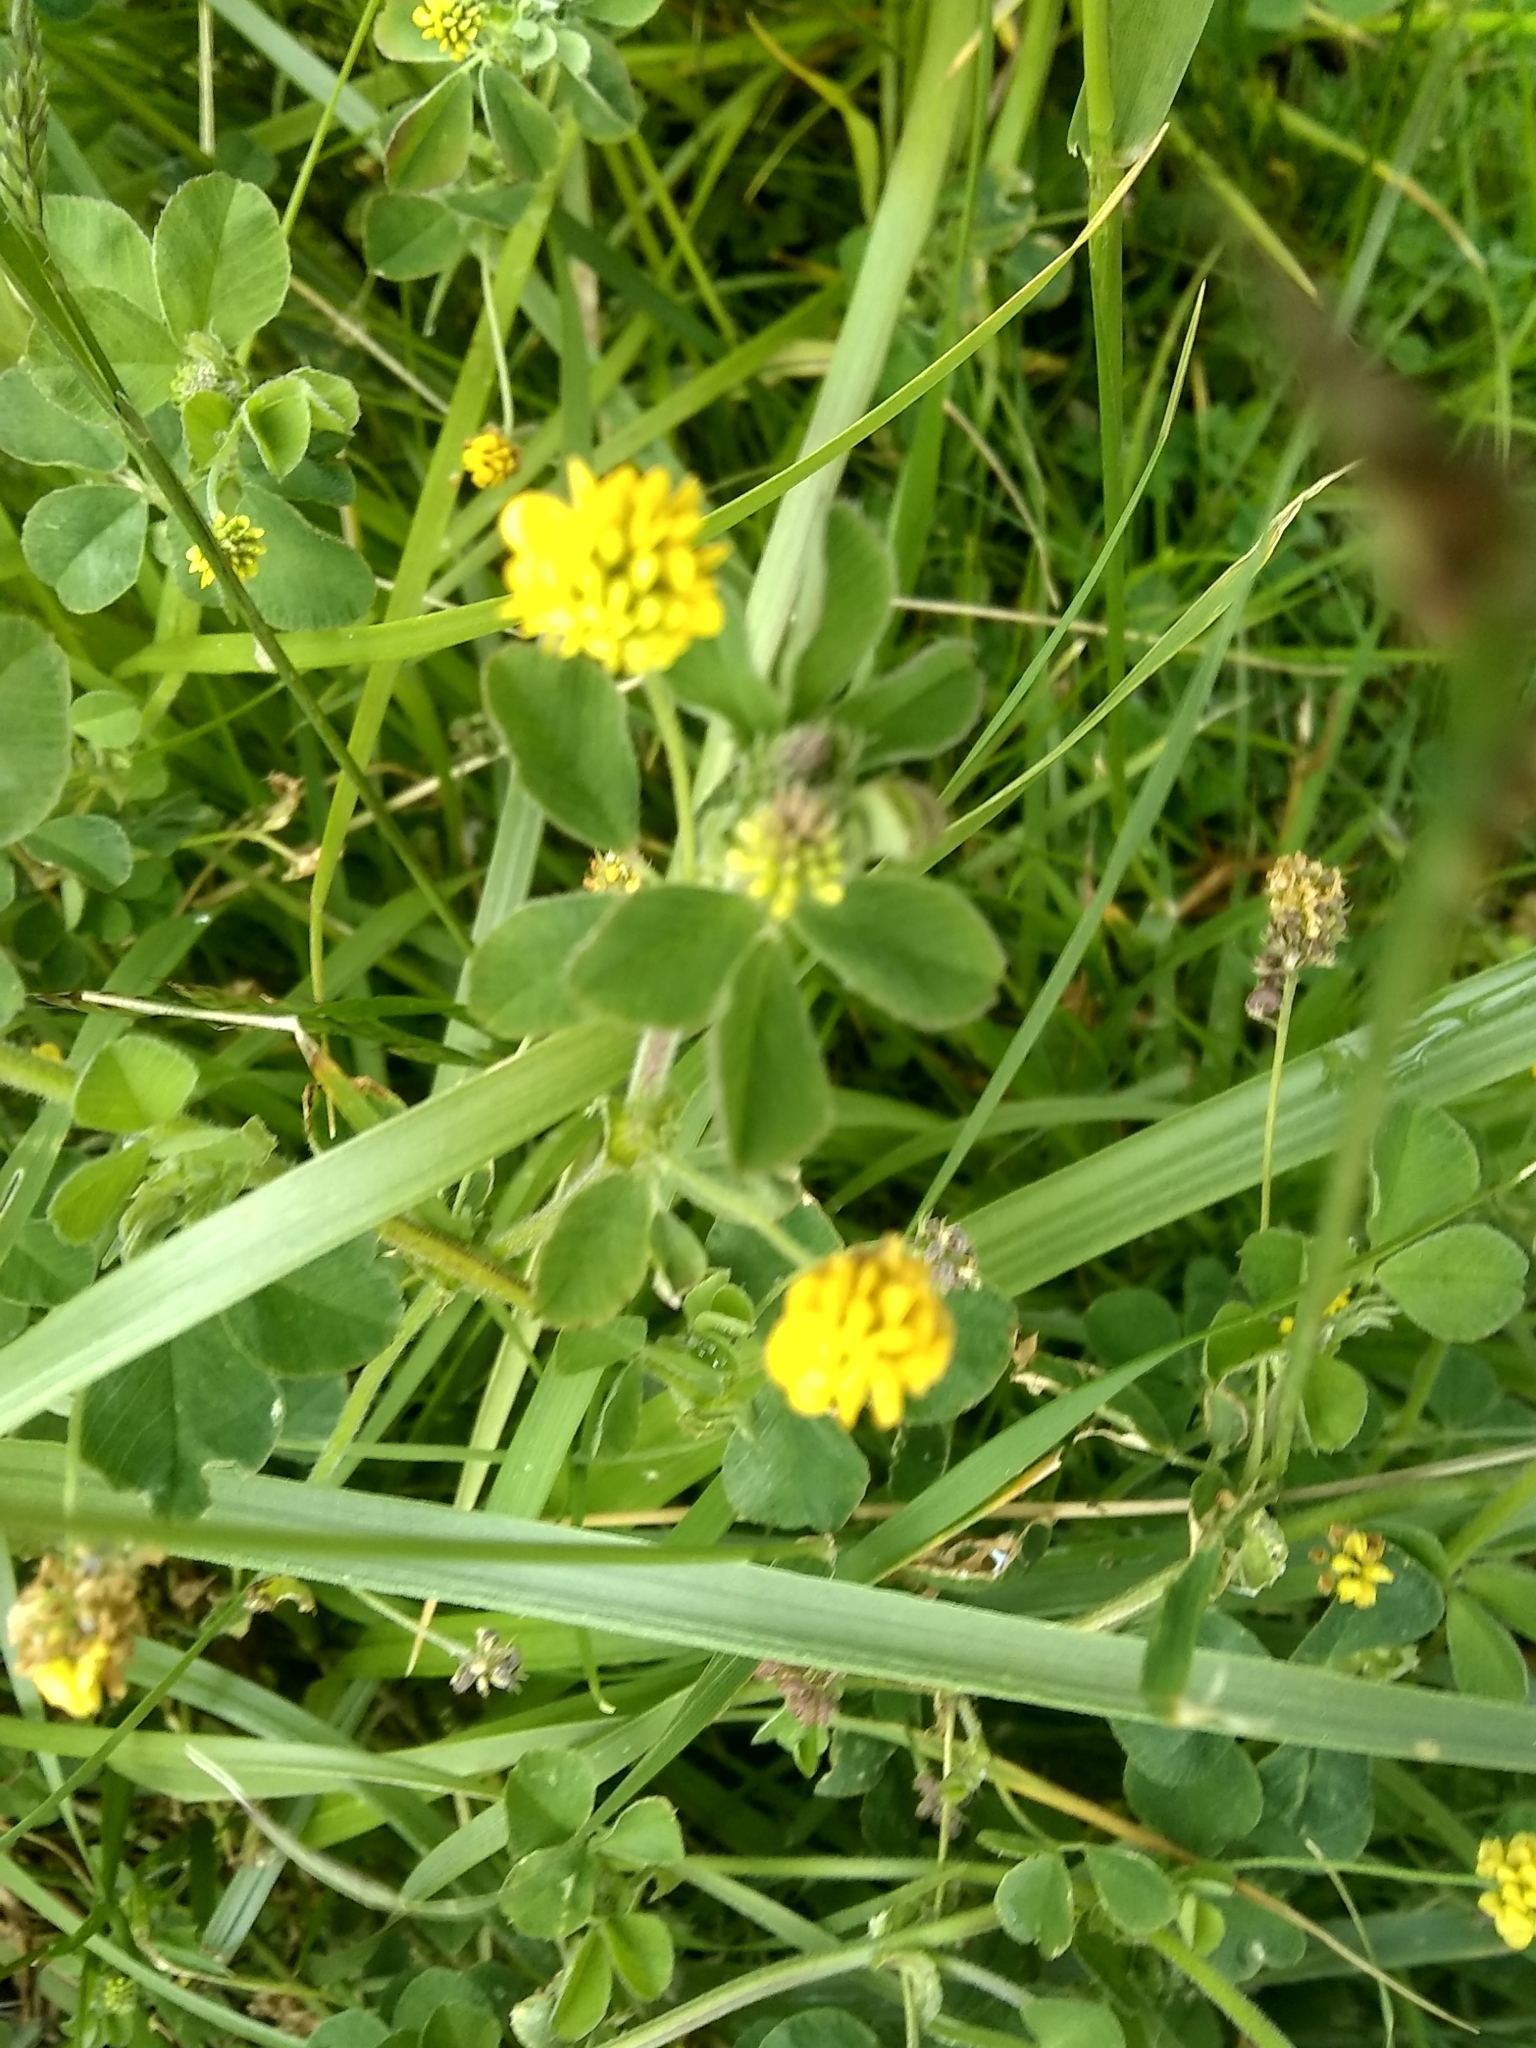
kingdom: Plantae
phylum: Tracheophyta
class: Magnoliopsida
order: Fabales
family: Fabaceae
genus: Medicago
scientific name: Medicago lupulina
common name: Black medick
